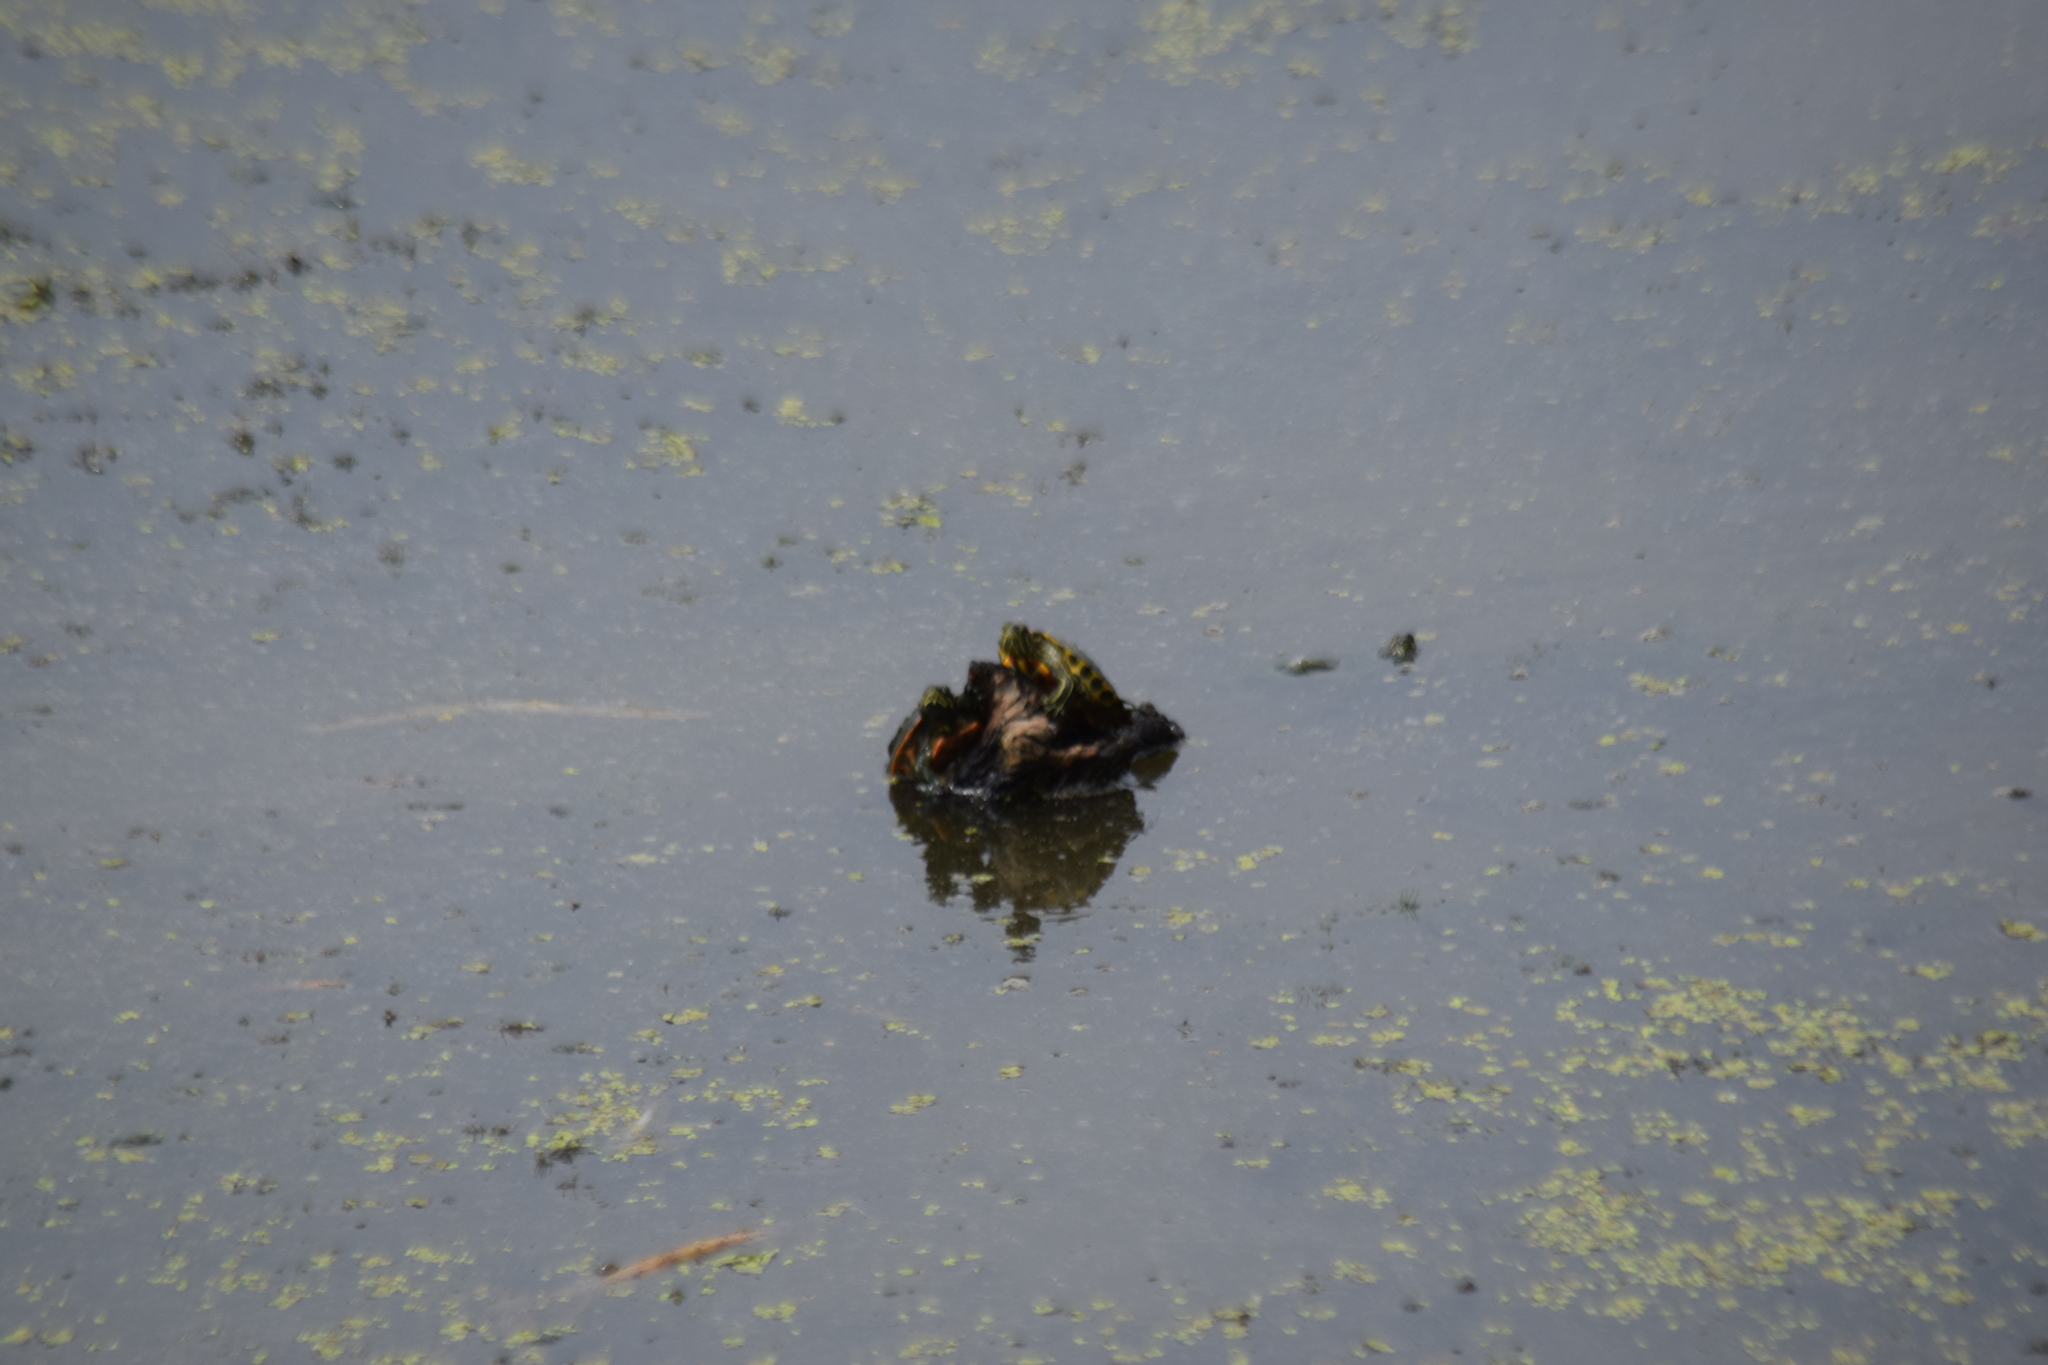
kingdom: Animalia
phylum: Chordata
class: Testudines
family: Emydidae
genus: Trachemys
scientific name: Trachemys scripta
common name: Slider
